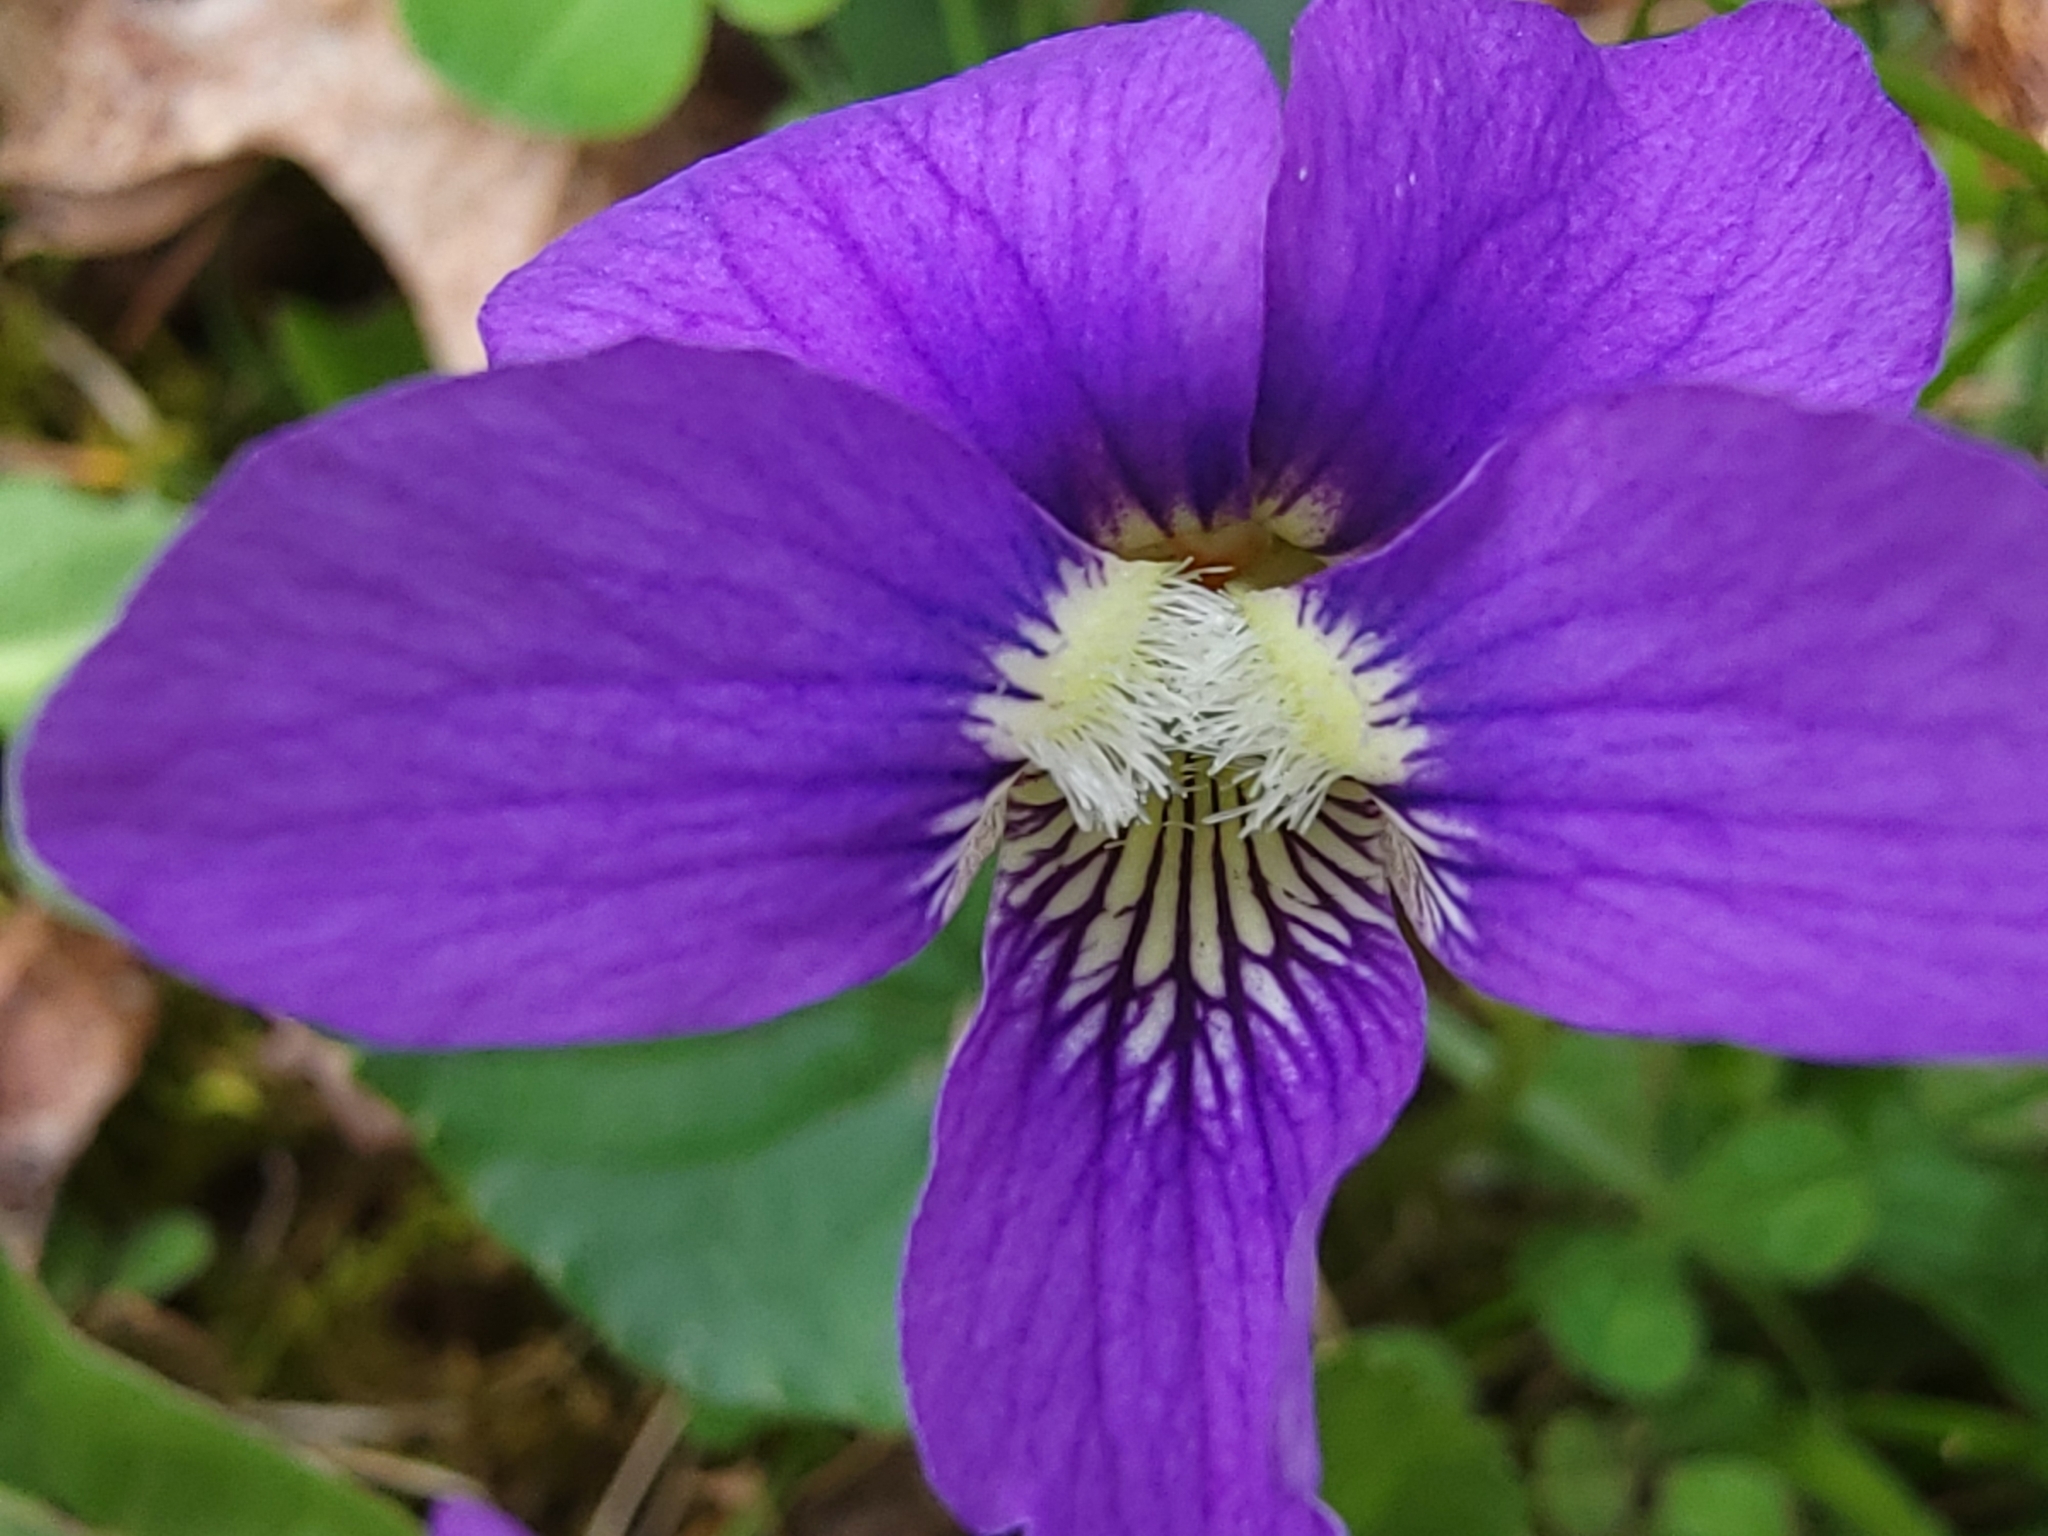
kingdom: Plantae
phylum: Tracheophyta
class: Magnoliopsida
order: Malpighiales
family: Violaceae
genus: Viola
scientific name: Viola sororia
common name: Dooryard violet
